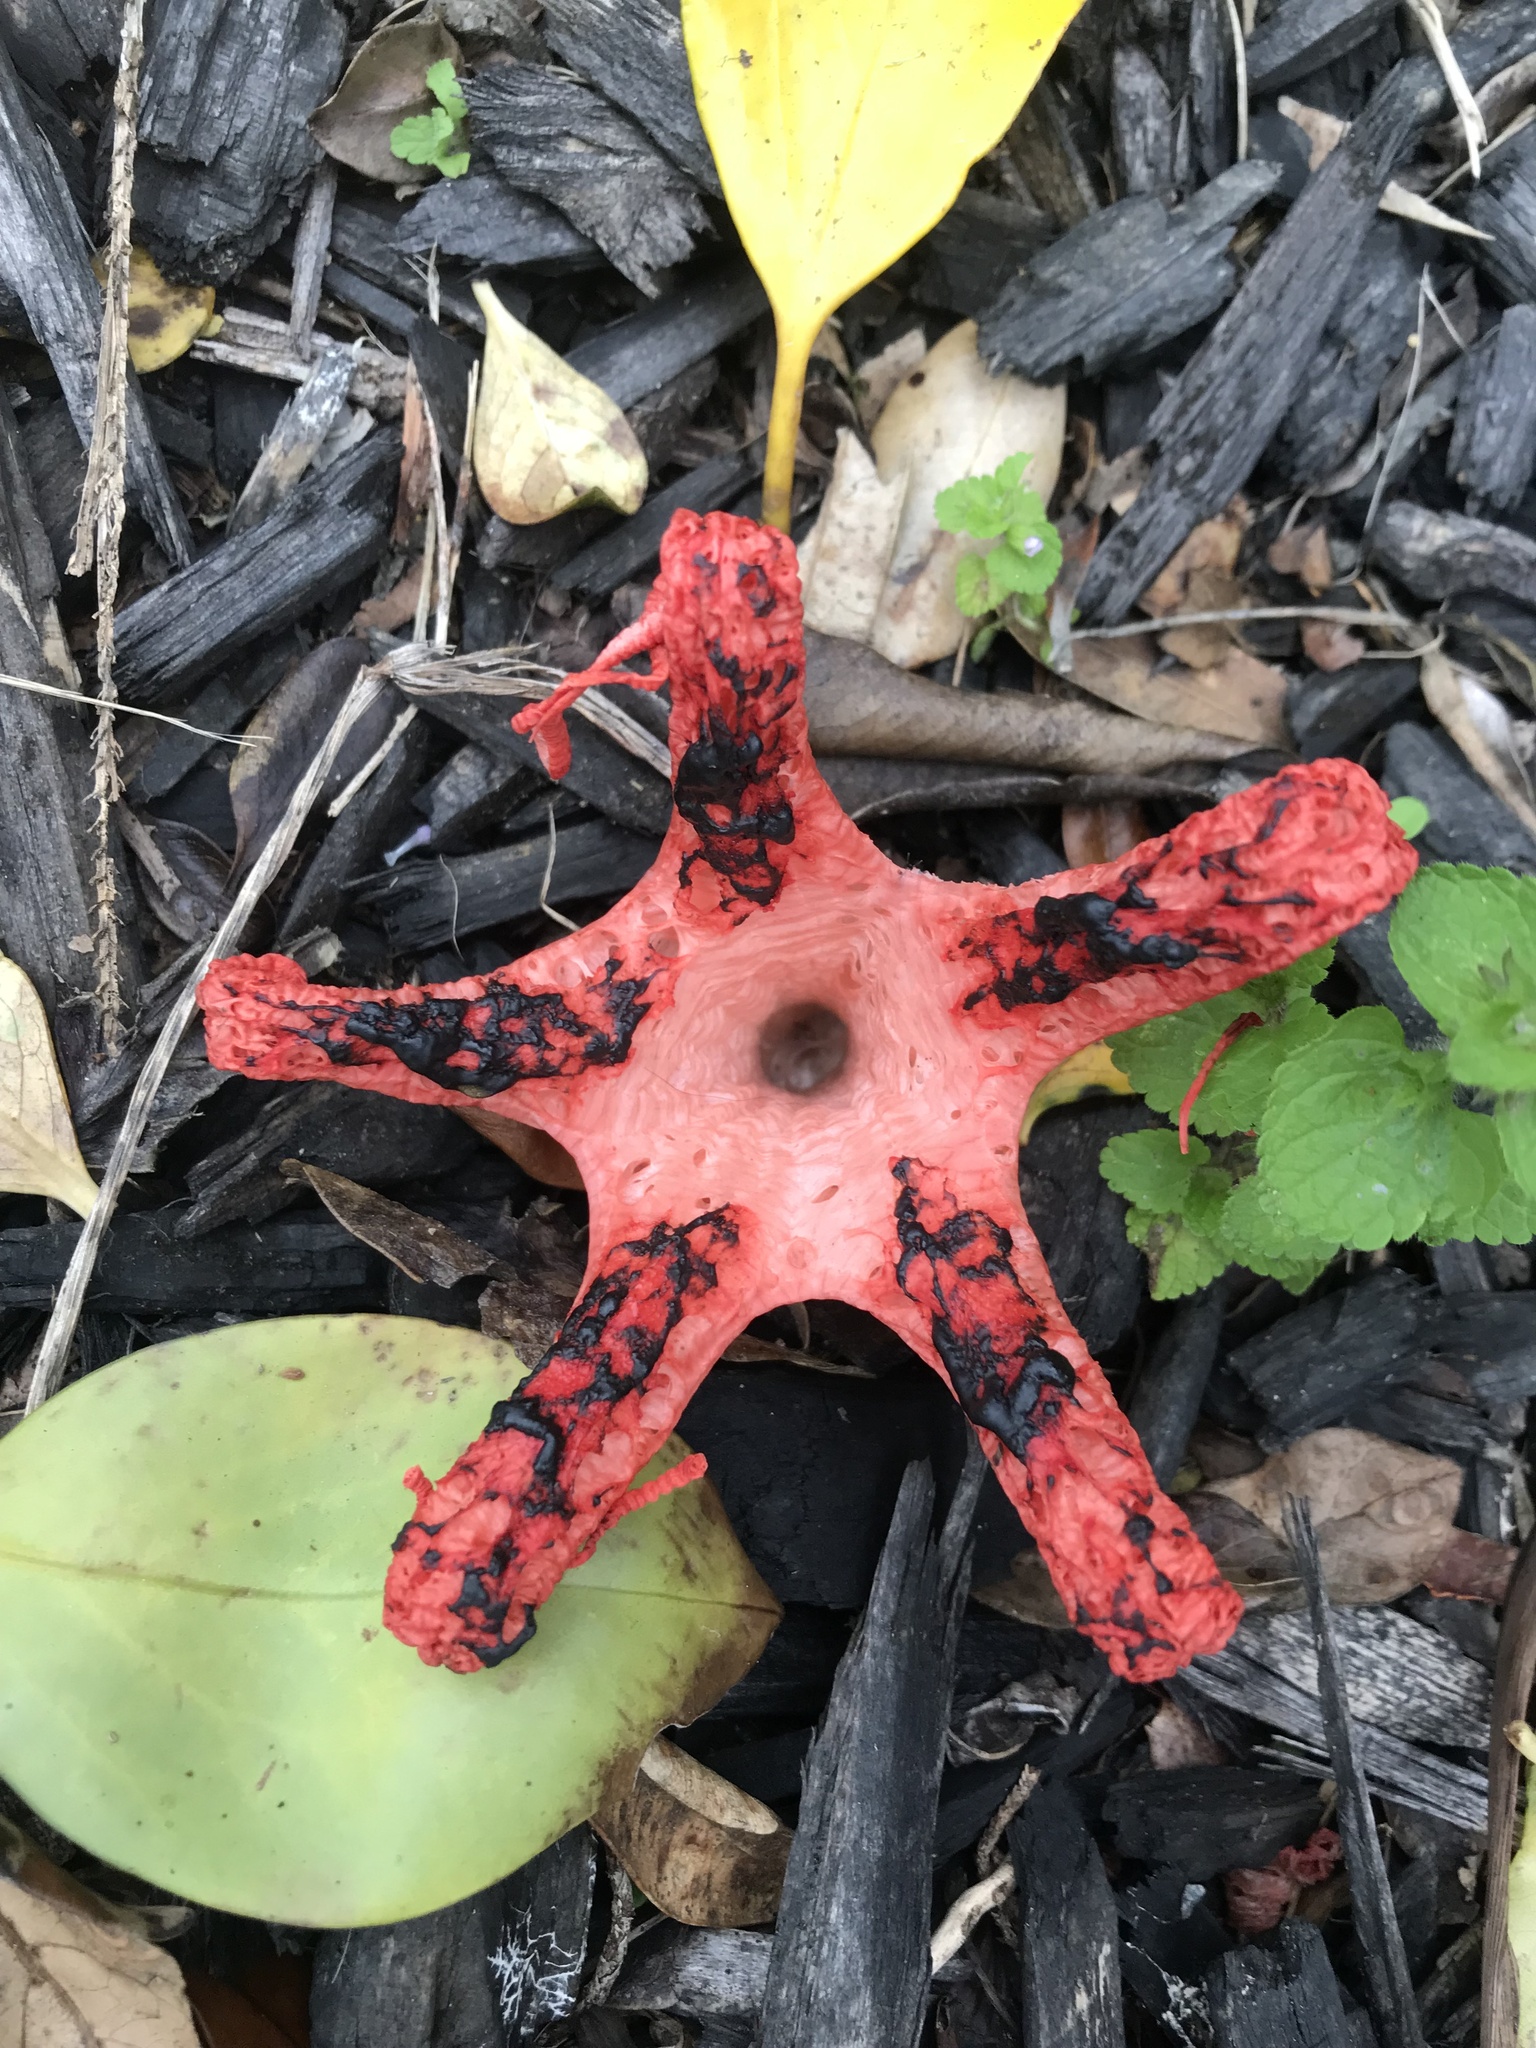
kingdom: Fungi
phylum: Basidiomycota
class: Agaricomycetes
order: Phallales
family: Phallaceae
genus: Clathrus
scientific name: Clathrus archeri
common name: Devil's fingers
